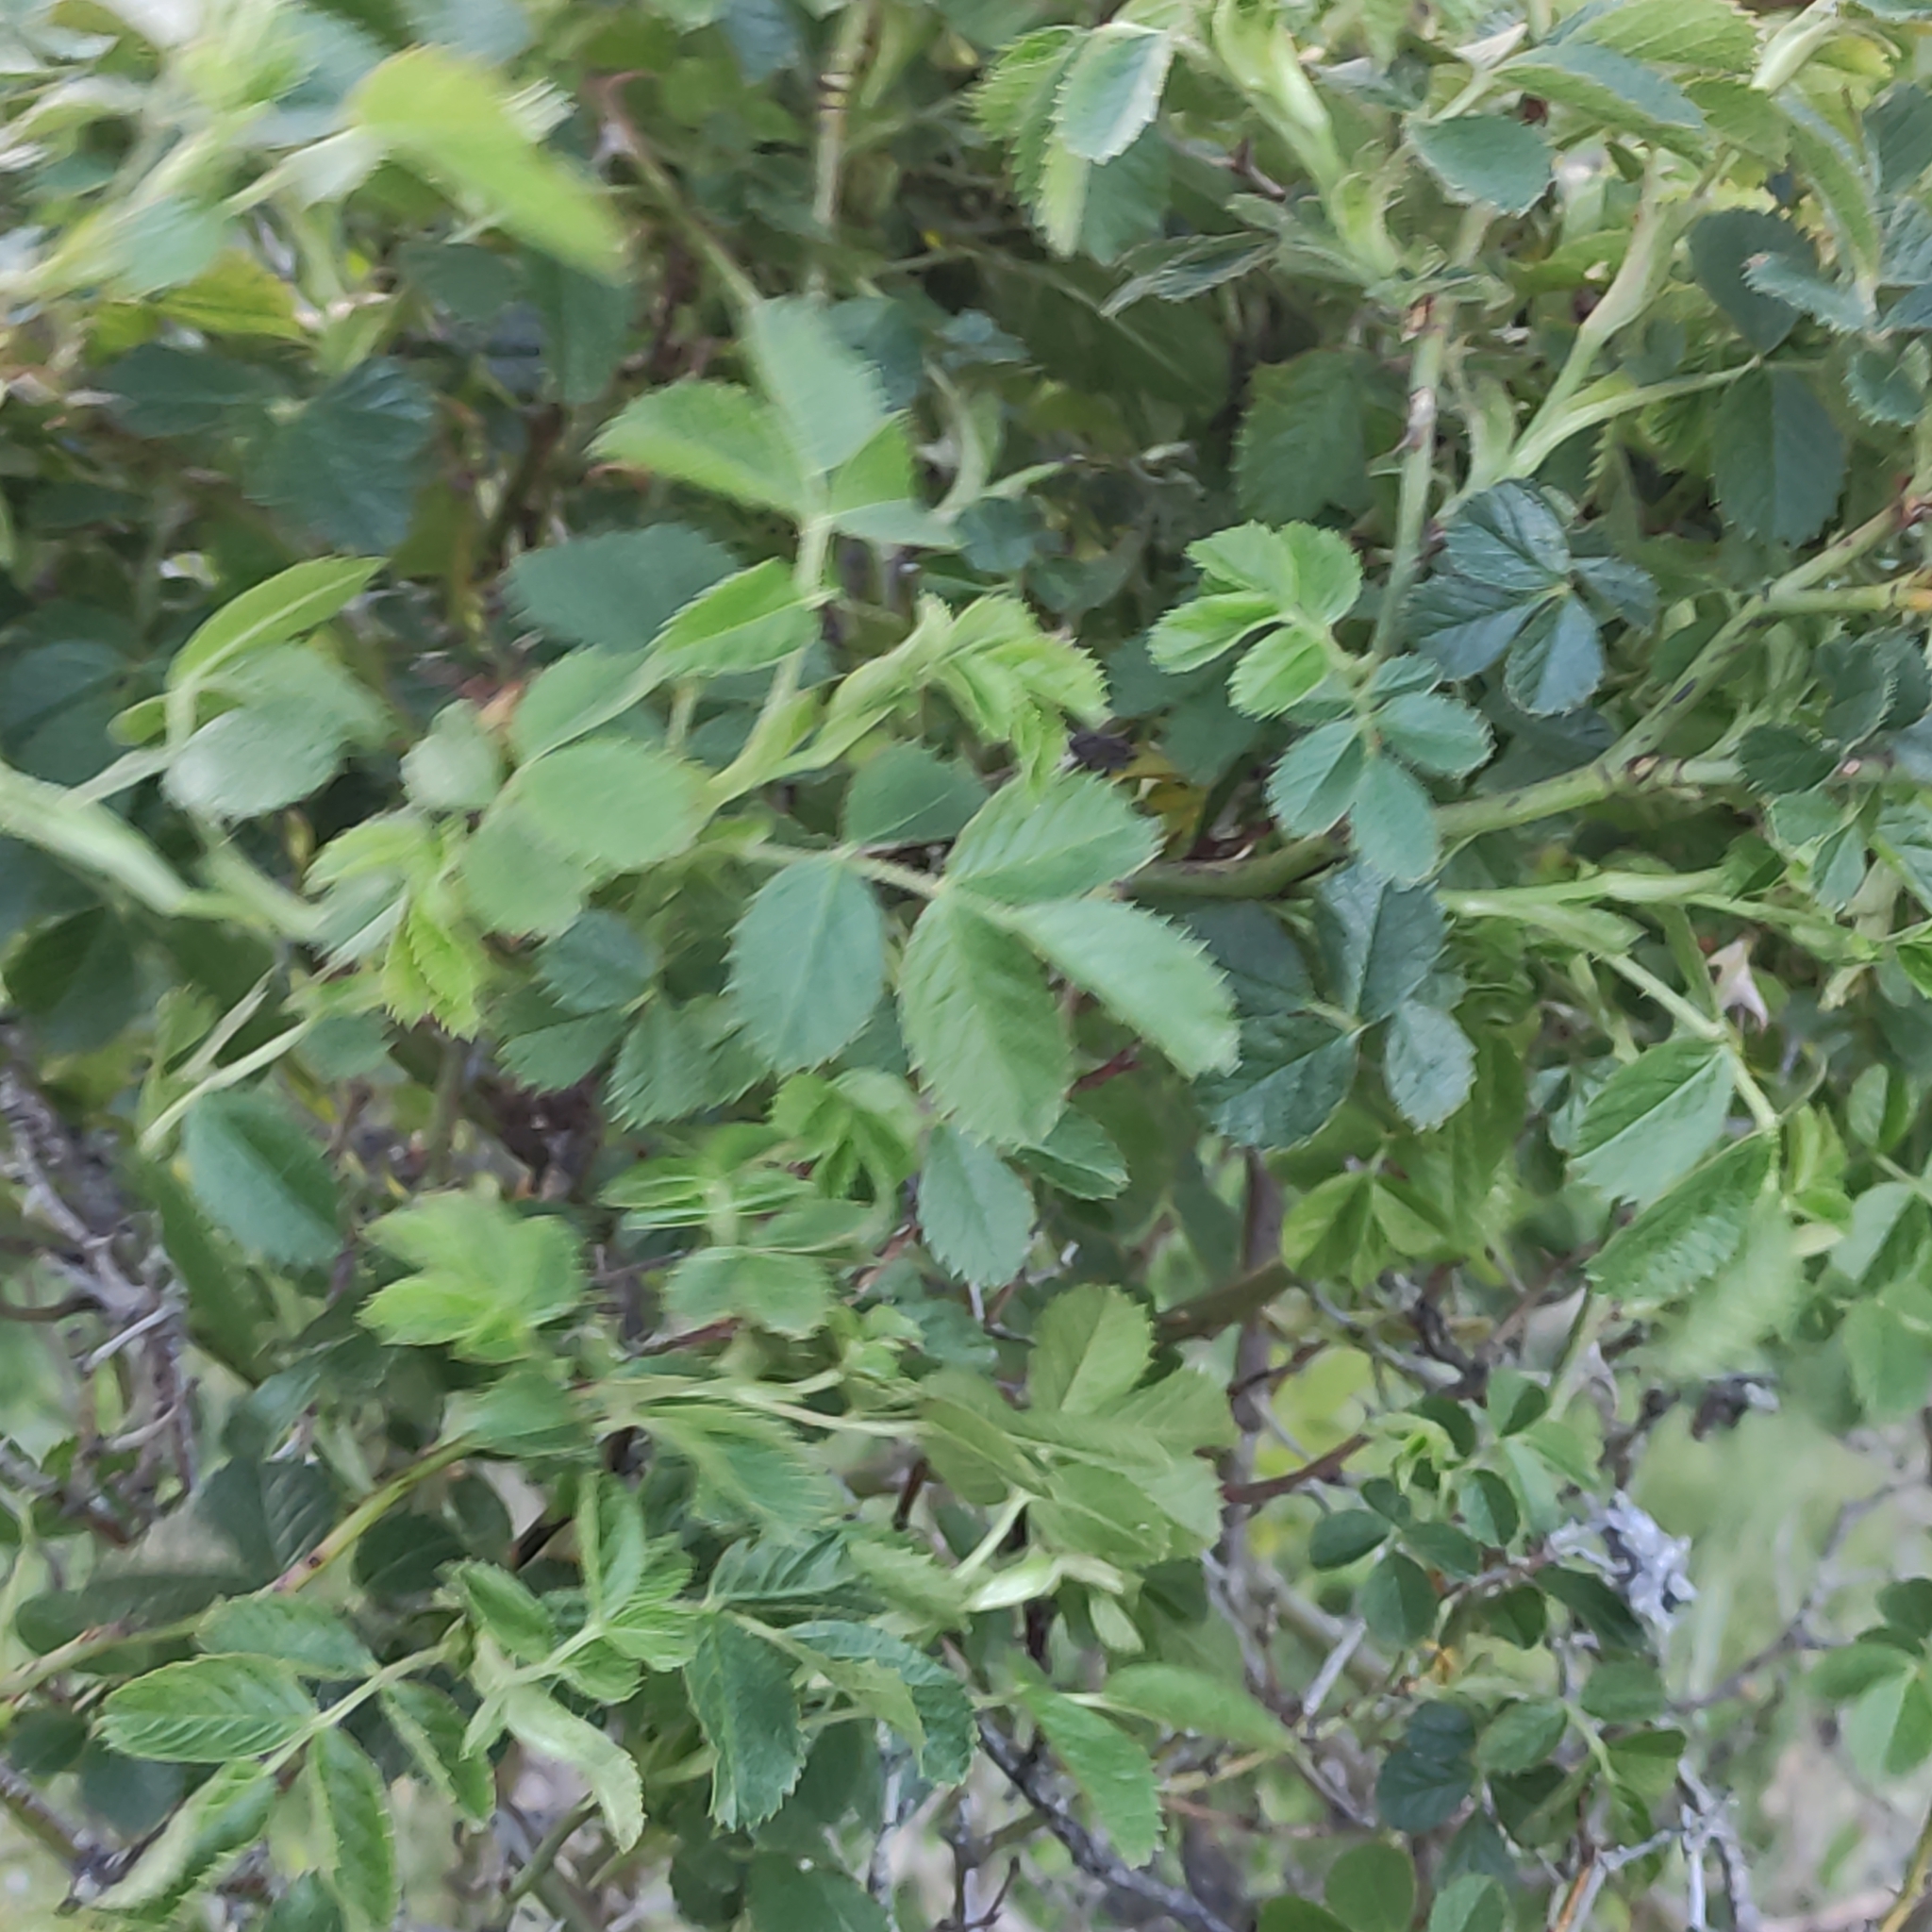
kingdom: Plantae
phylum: Tracheophyta
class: Magnoliopsida
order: Rosales
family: Rosaceae
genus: Rosa
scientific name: Rosa rubiginosa
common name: Sweet-briar
